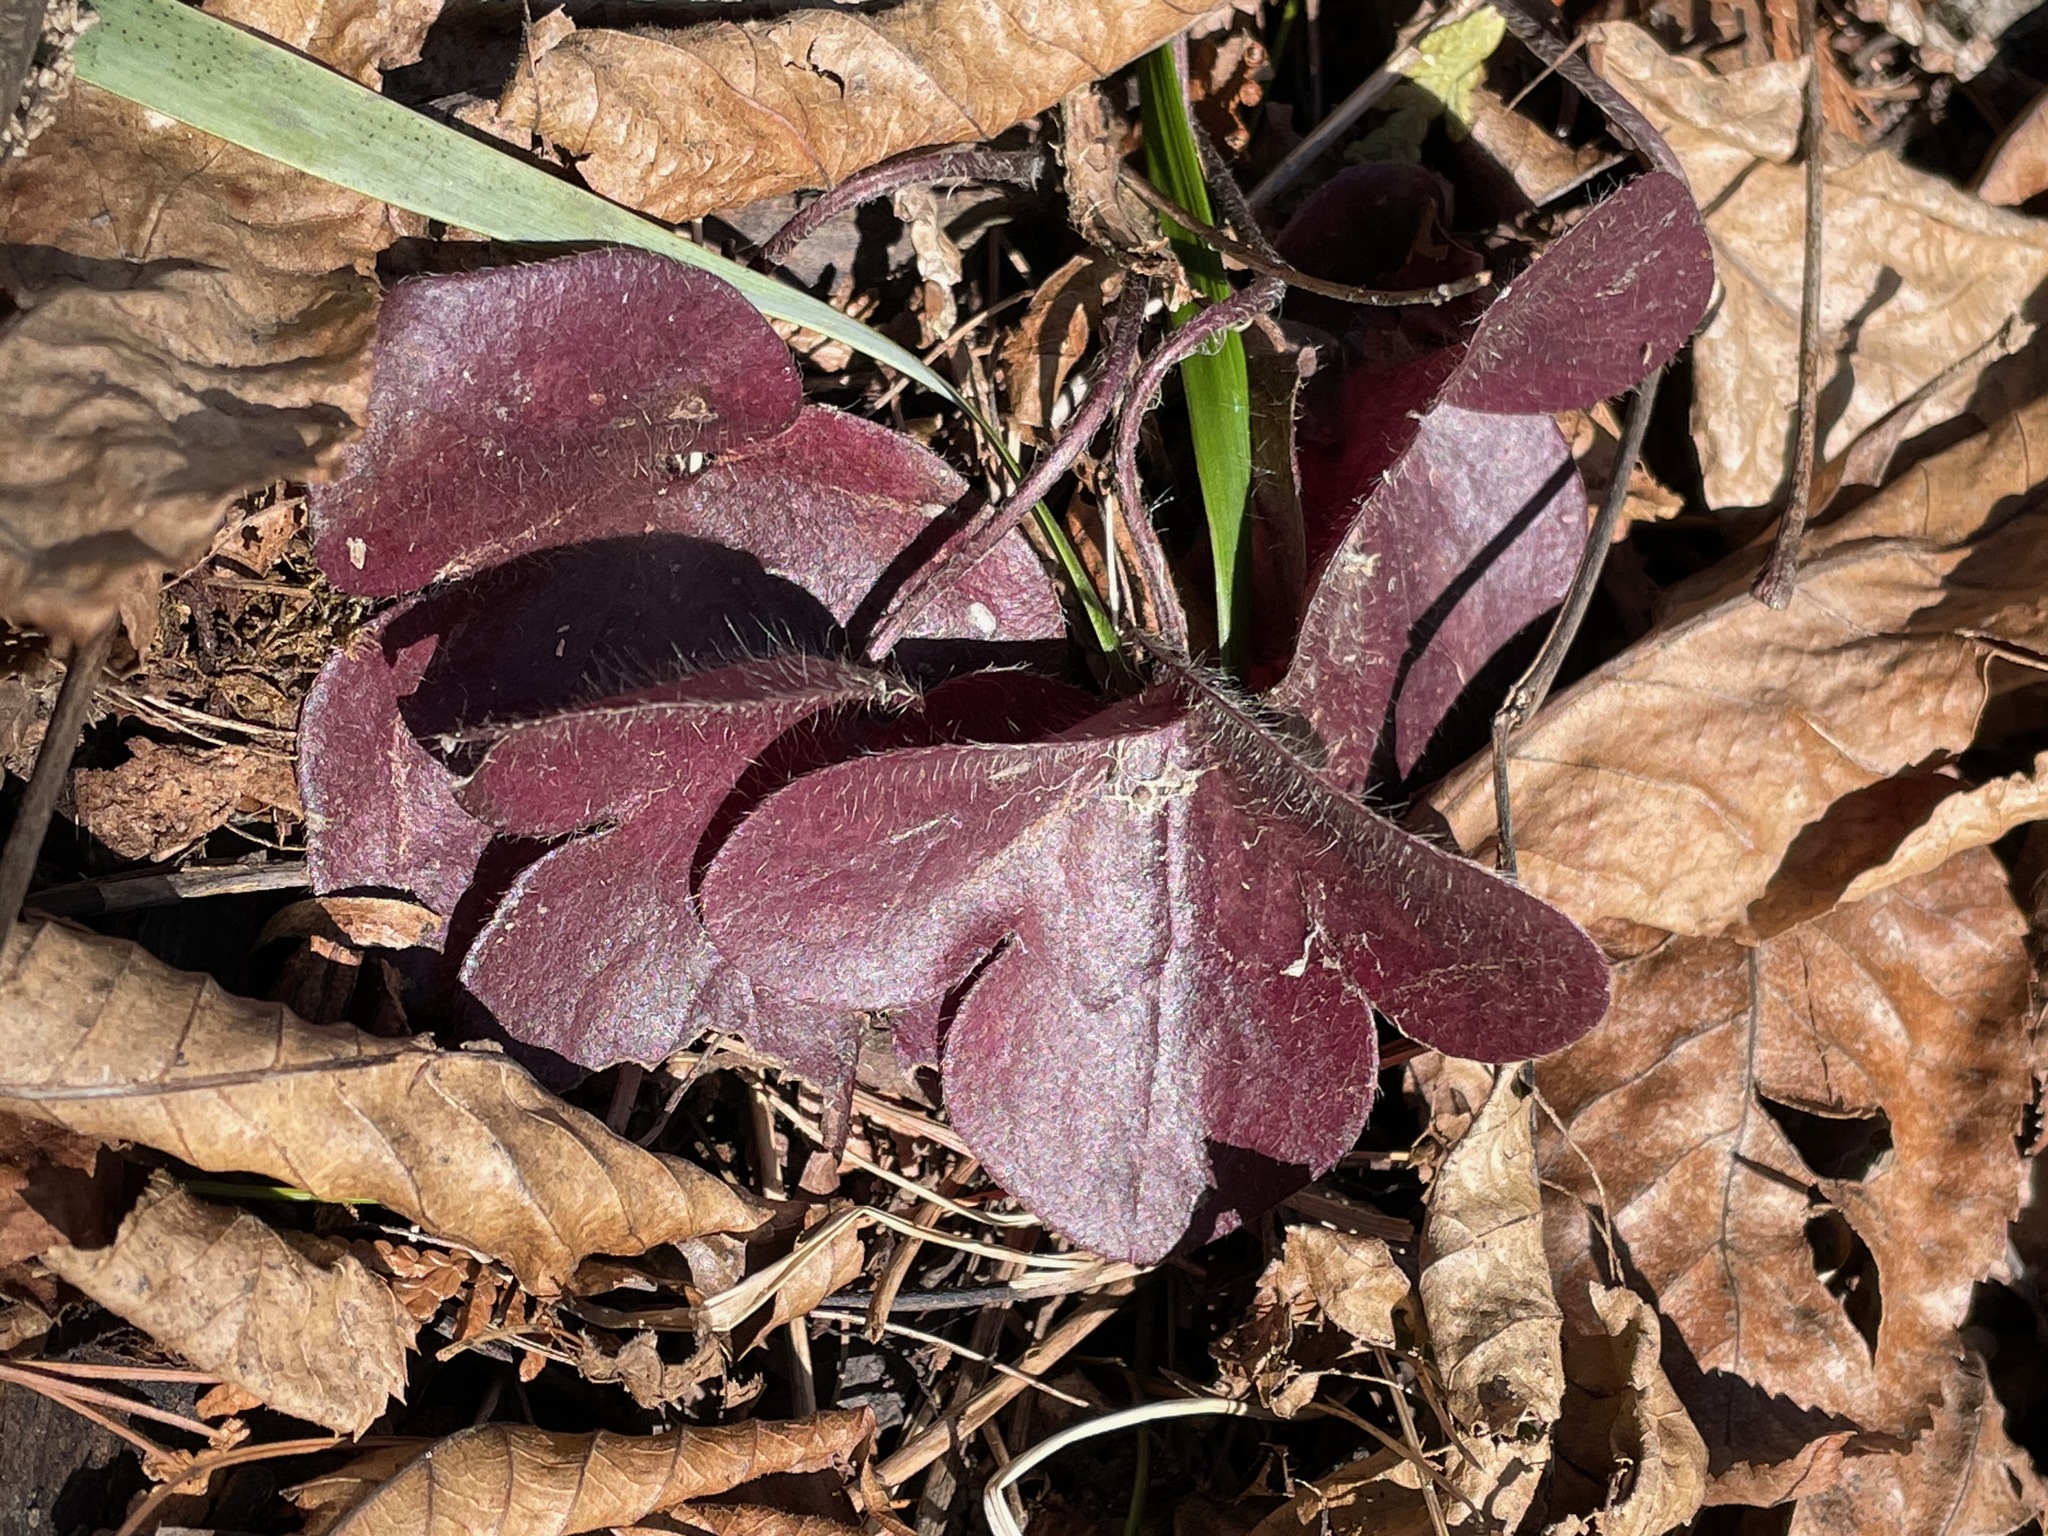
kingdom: Plantae
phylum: Tracheophyta
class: Magnoliopsida
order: Ranunculales
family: Ranunculaceae
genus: Hepatica
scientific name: Hepatica americana
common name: American hepatica
